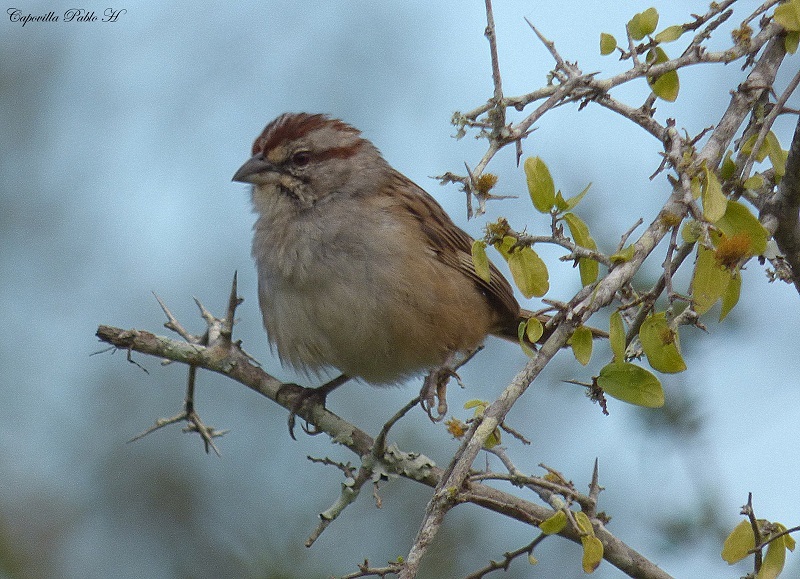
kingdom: Animalia
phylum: Chordata
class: Aves
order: Passeriformes
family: Passerellidae
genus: Rhynchospiza
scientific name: Rhynchospiza strigiceps
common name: Stripe-capped sparrow
